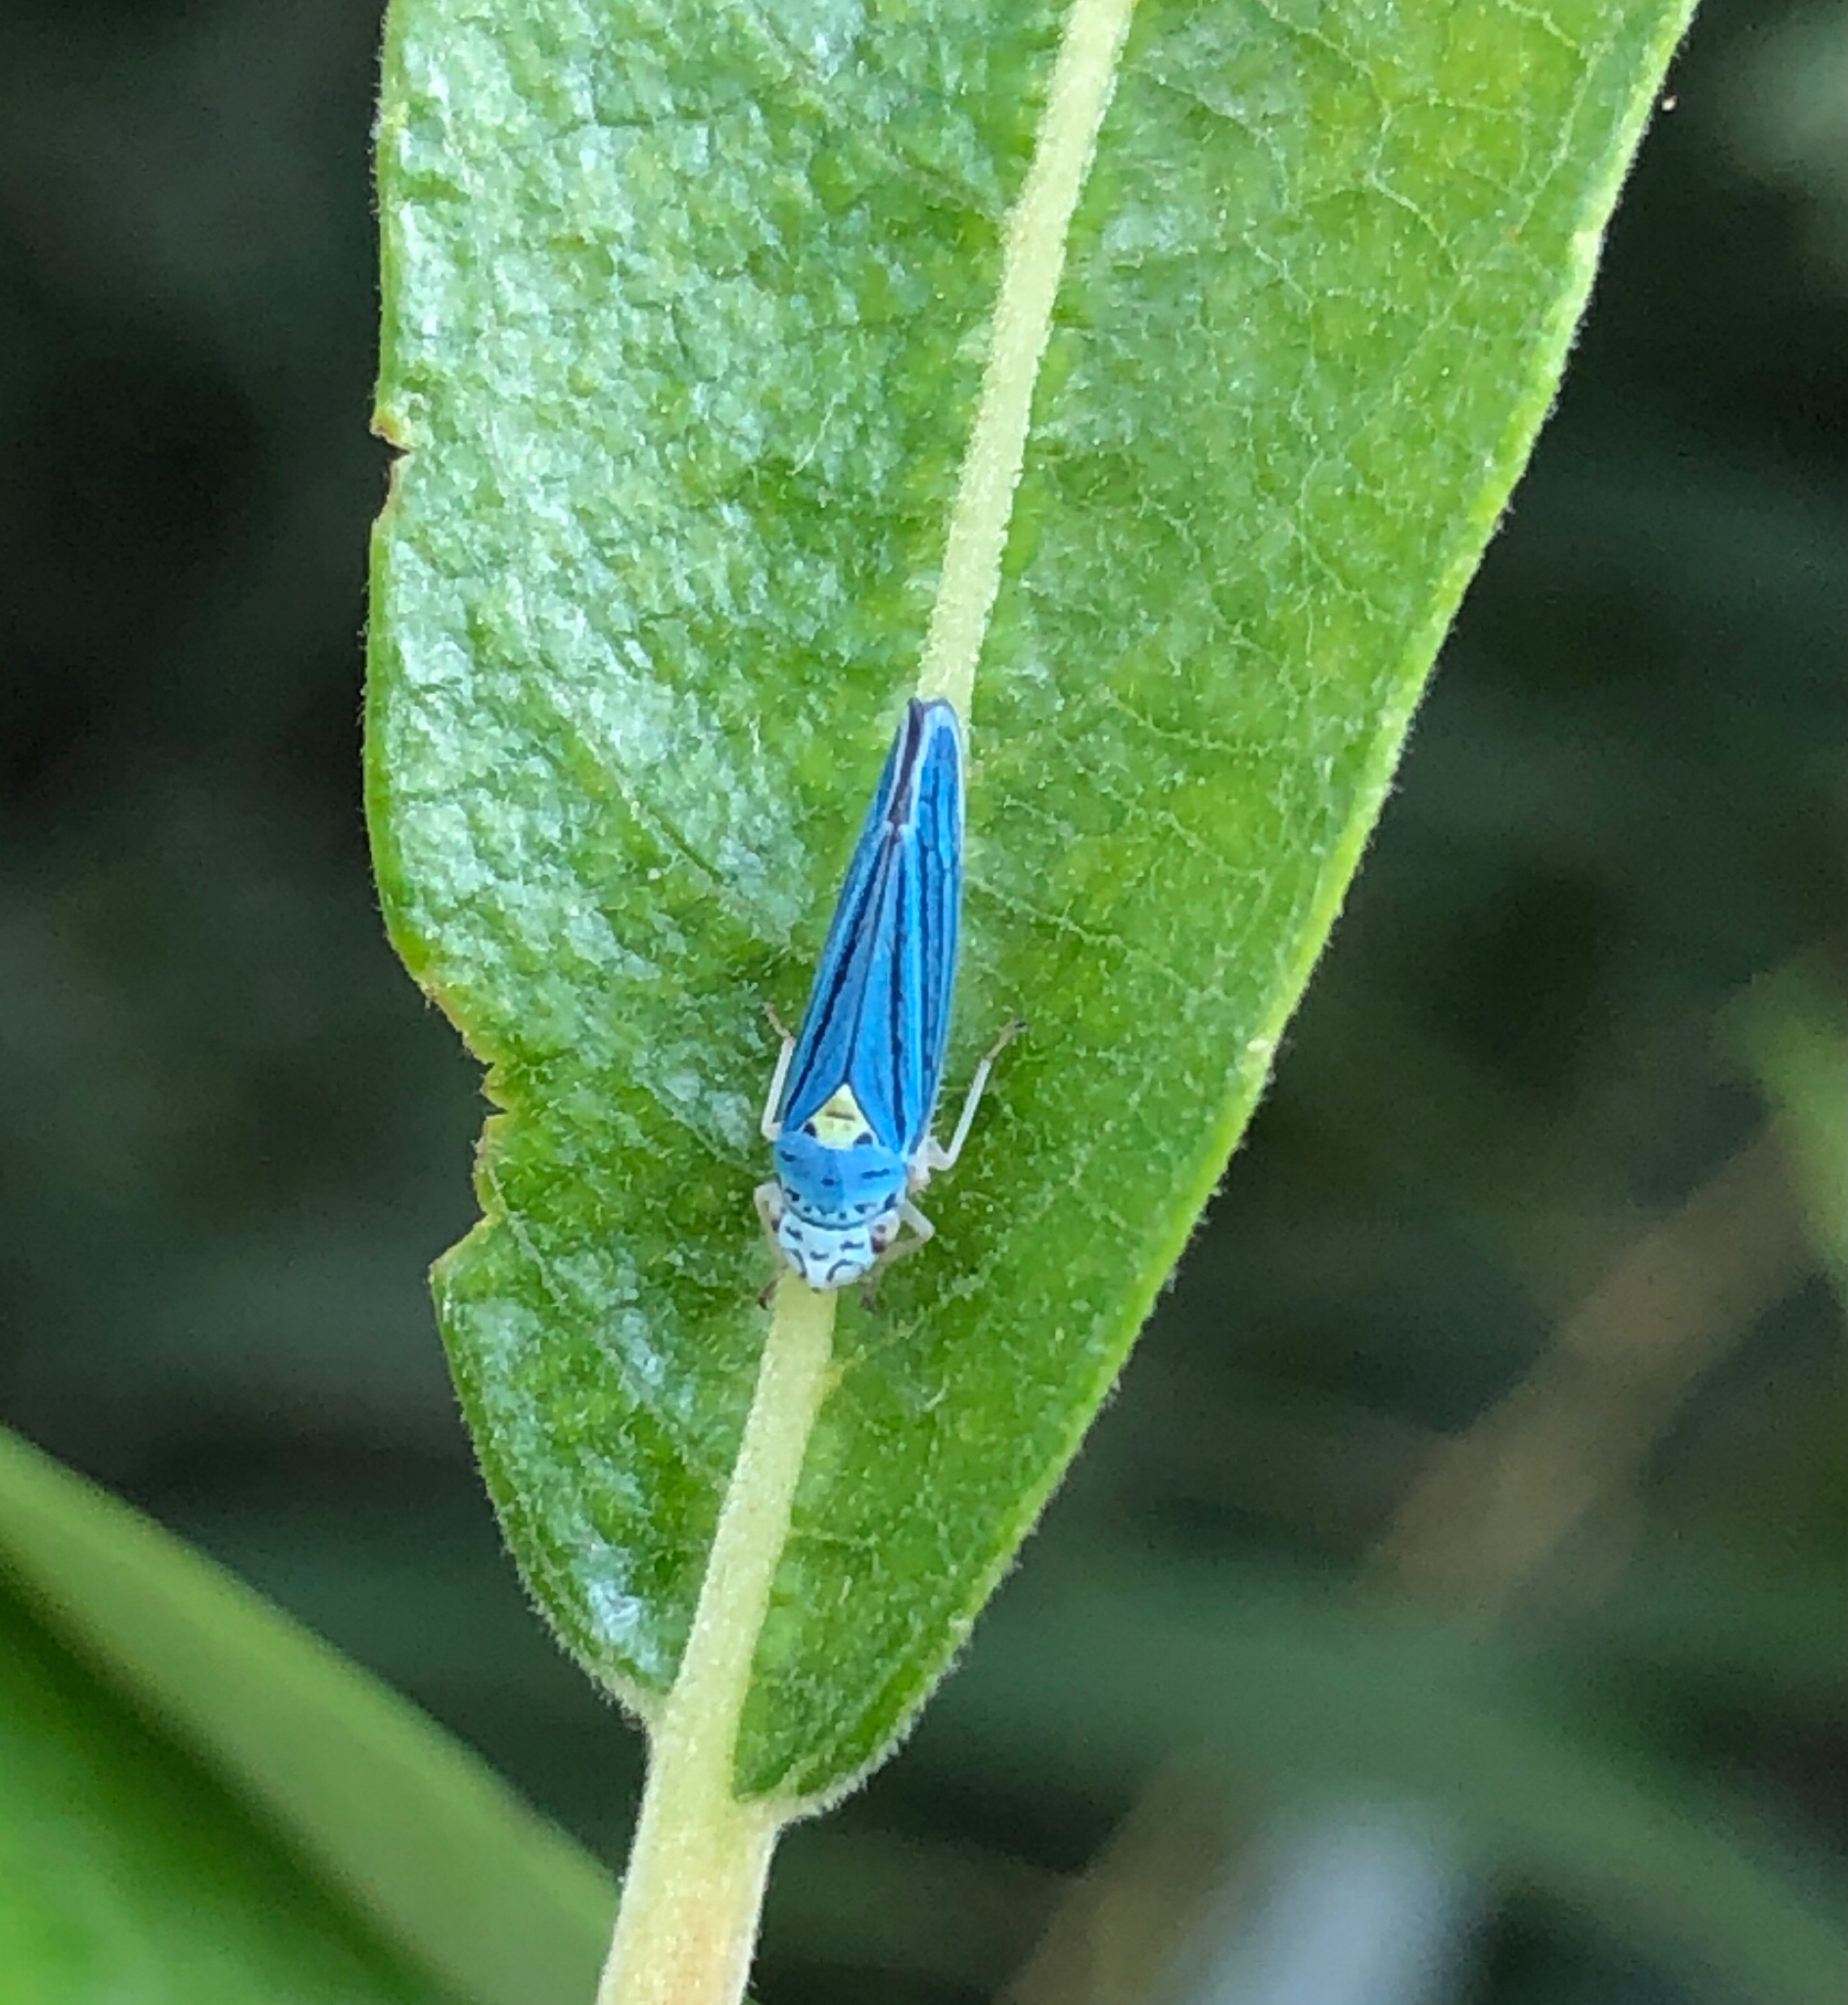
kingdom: Animalia
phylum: Arthropoda
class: Insecta
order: Hemiptera
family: Cicadellidae
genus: Graphocephala
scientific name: Graphocephala atropunctata
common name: Blue-green sharpshooter
